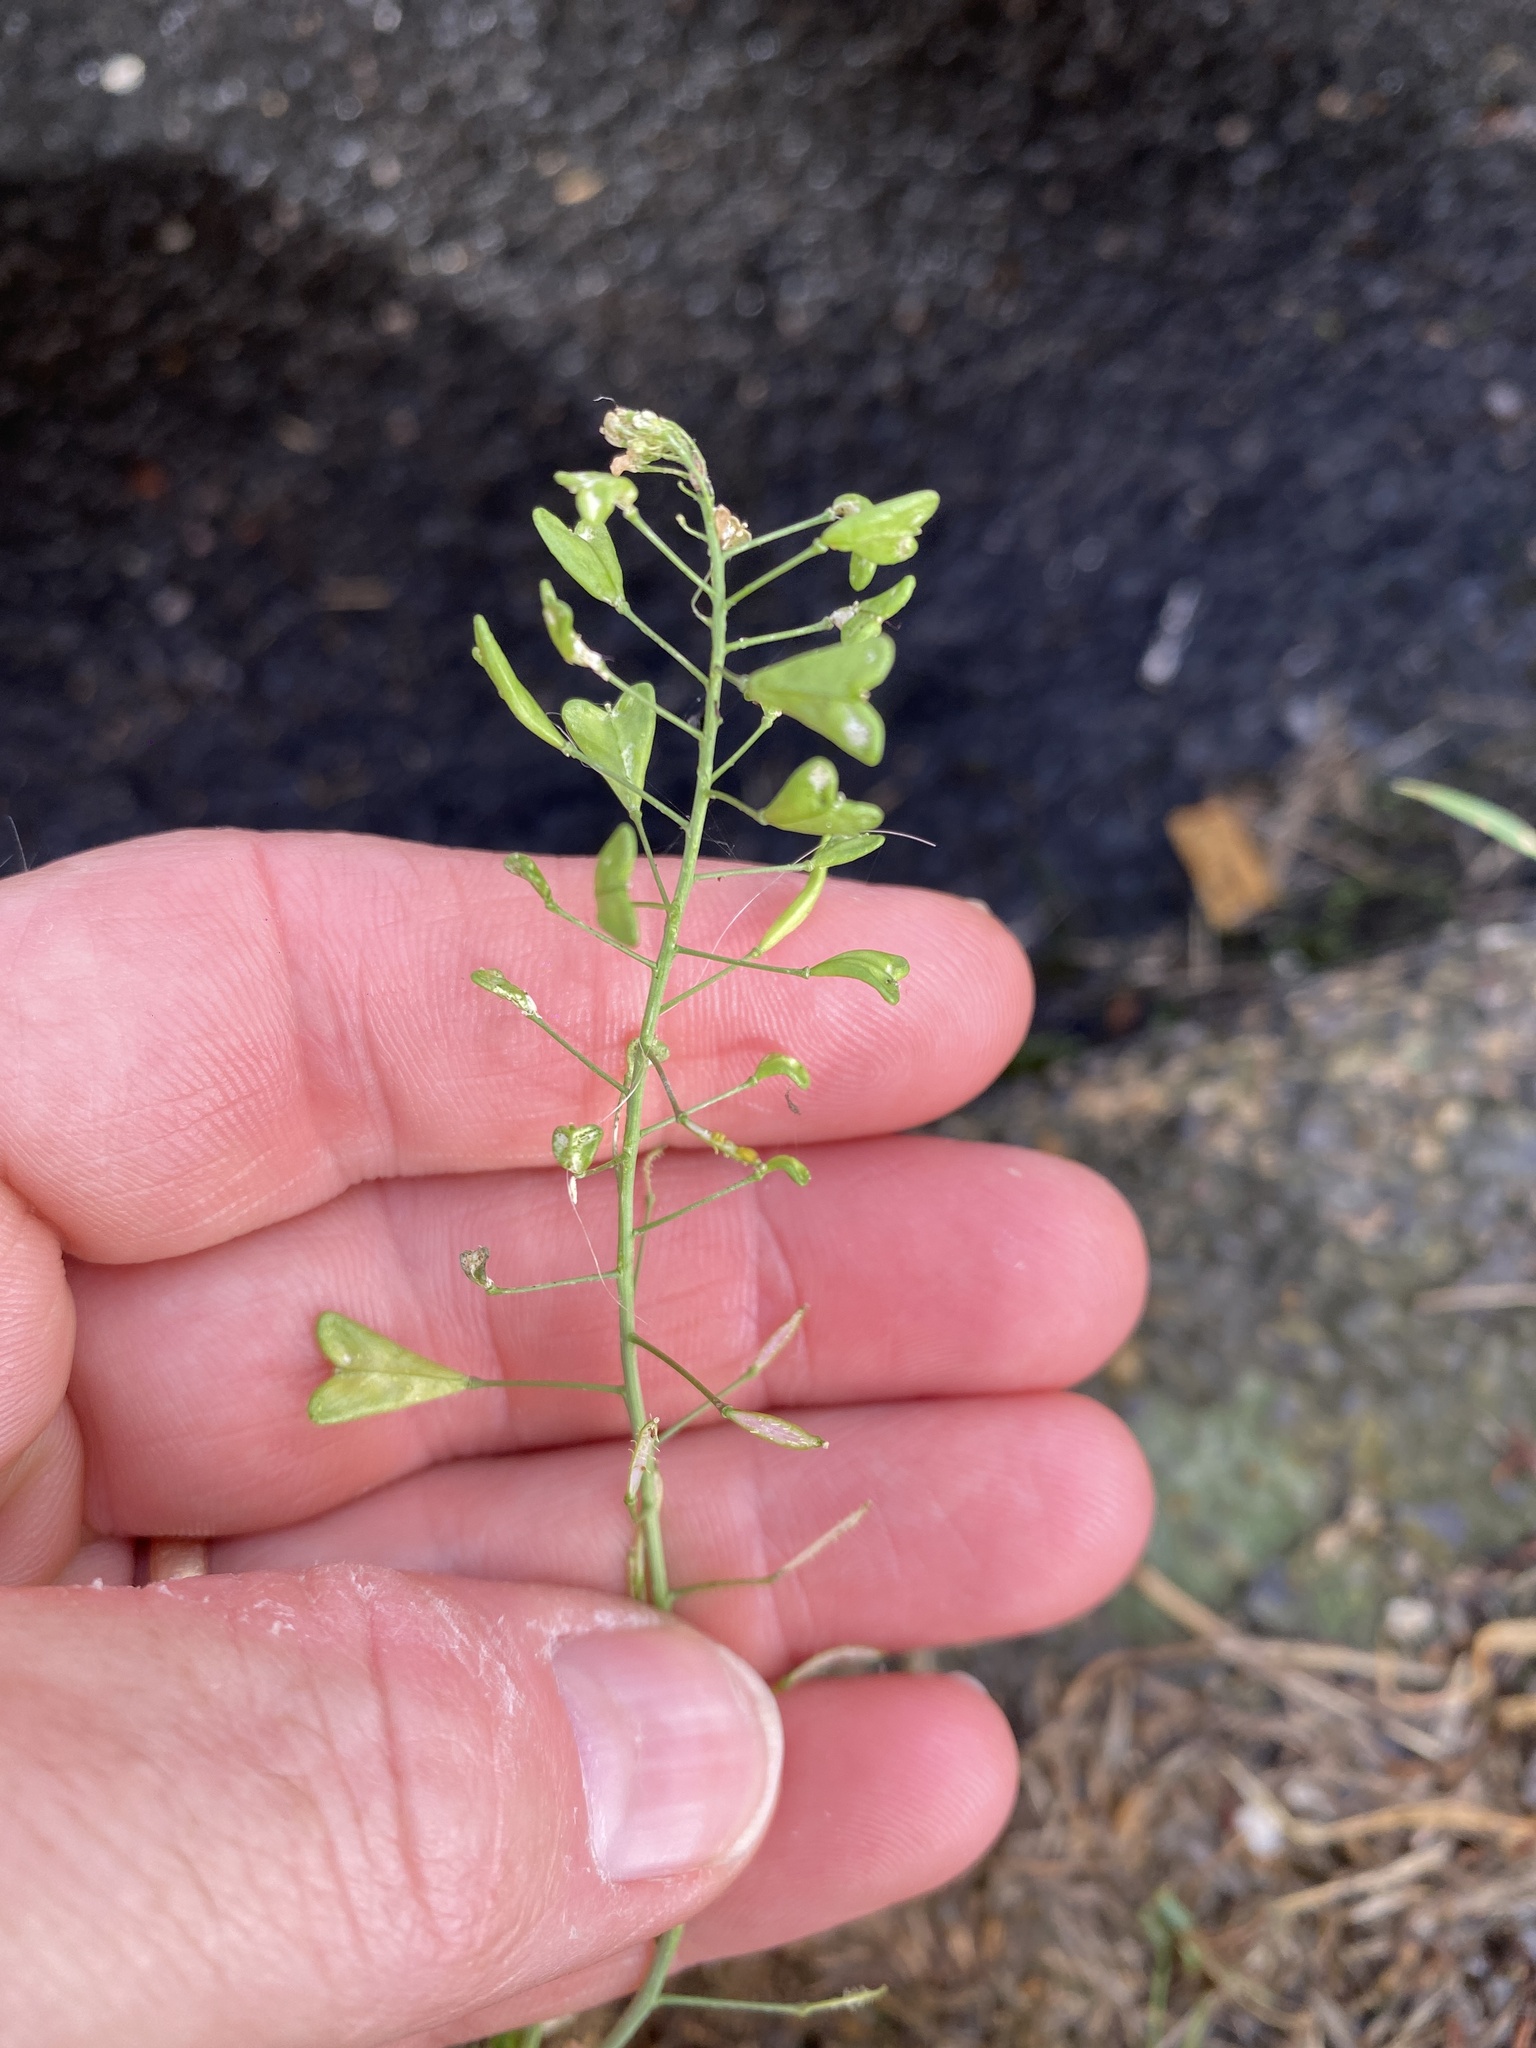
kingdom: Plantae
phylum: Tracheophyta
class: Magnoliopsida
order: Brassicales
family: Brassicaceae
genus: Capsella
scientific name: Capsella bursa-pastoris
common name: Shepherd's purse
